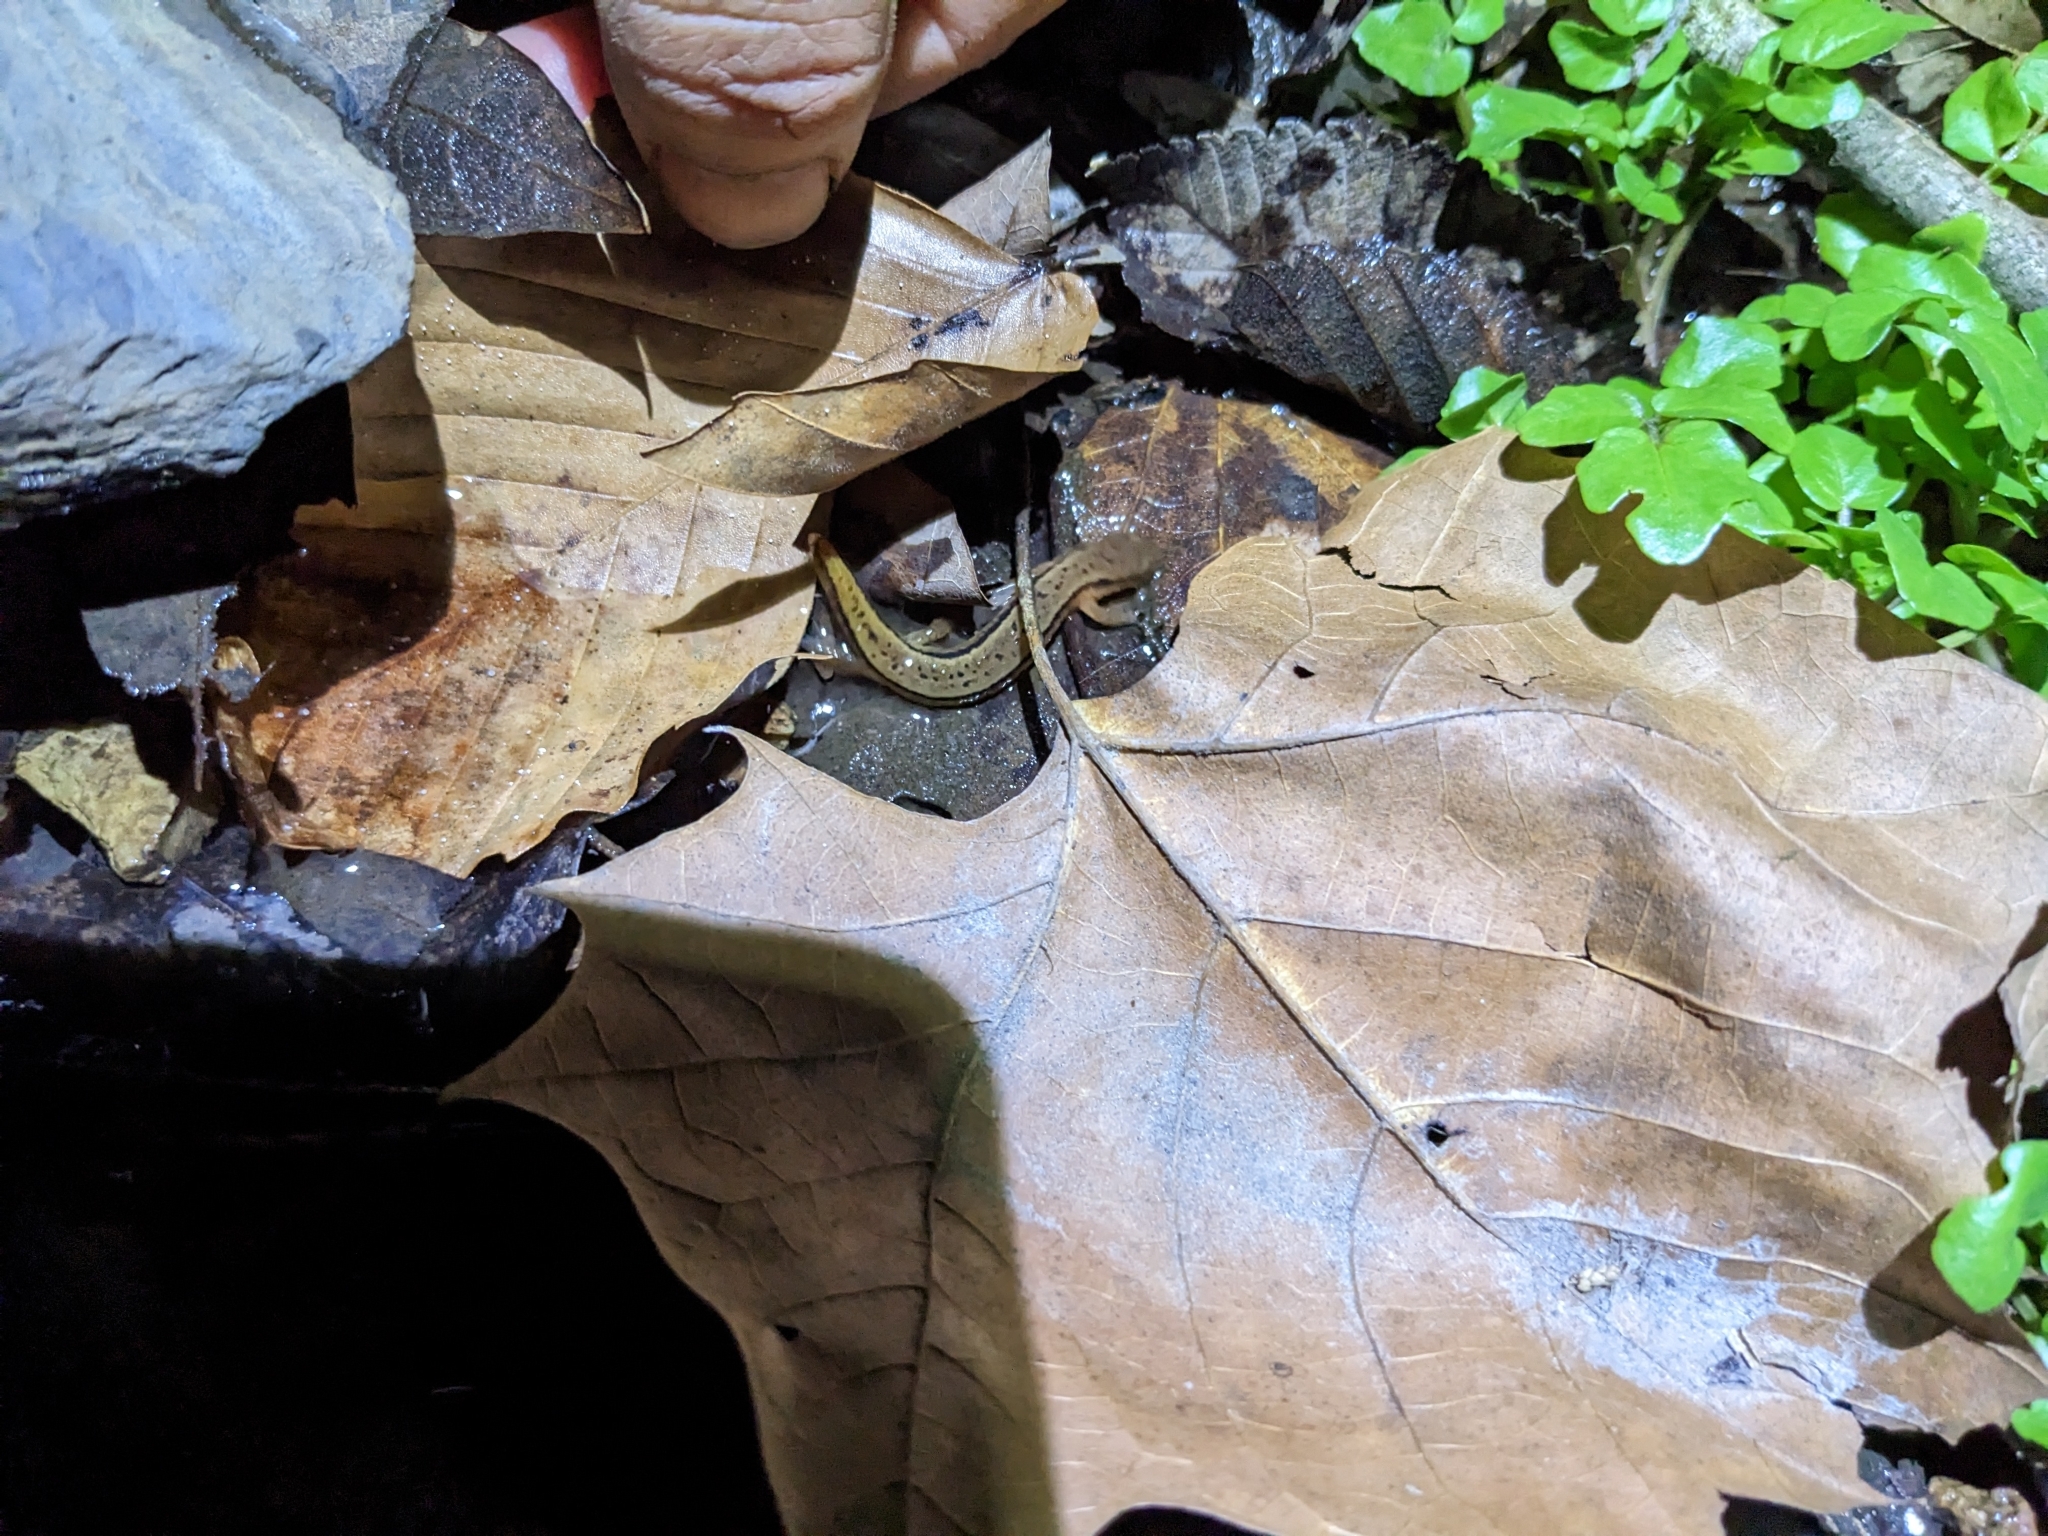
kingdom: Animalia
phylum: Chordata
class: Amphibia
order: Caudata
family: Plethodontidae
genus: Eurycea
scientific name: Eurycea cirrigera
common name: Southern two-lined salamander
